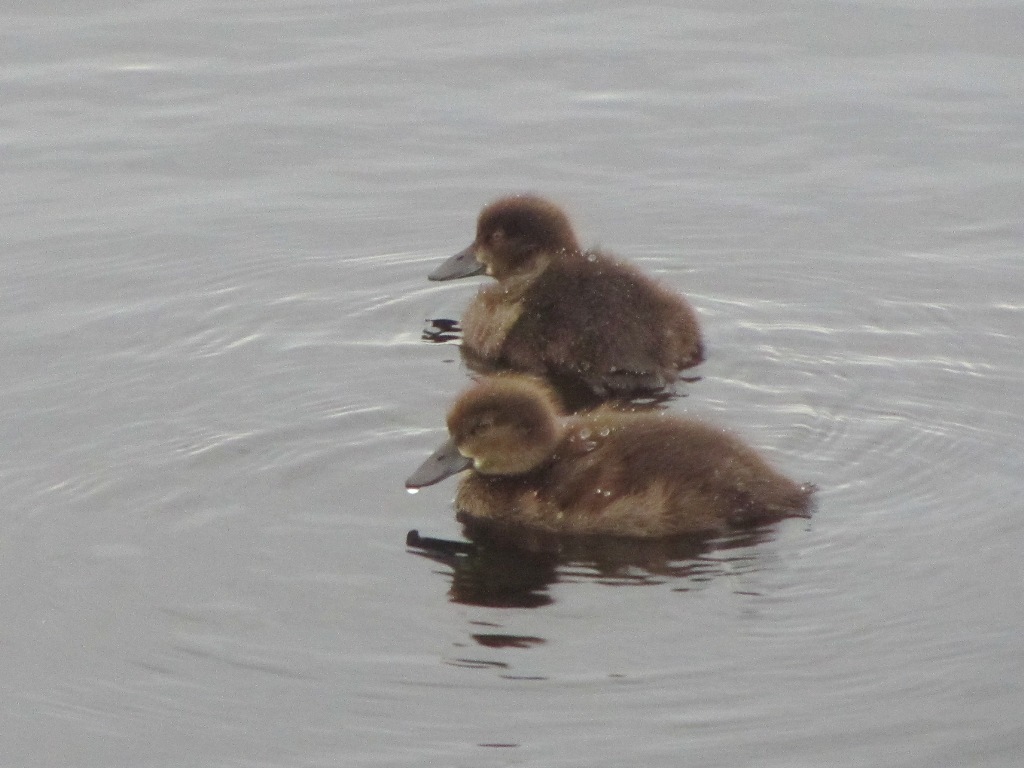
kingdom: Animalia
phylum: Chordata
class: Aves
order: Anseriformes
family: Anatidae
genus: Aythya
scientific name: Aythya fuligula
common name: Tufted duck
